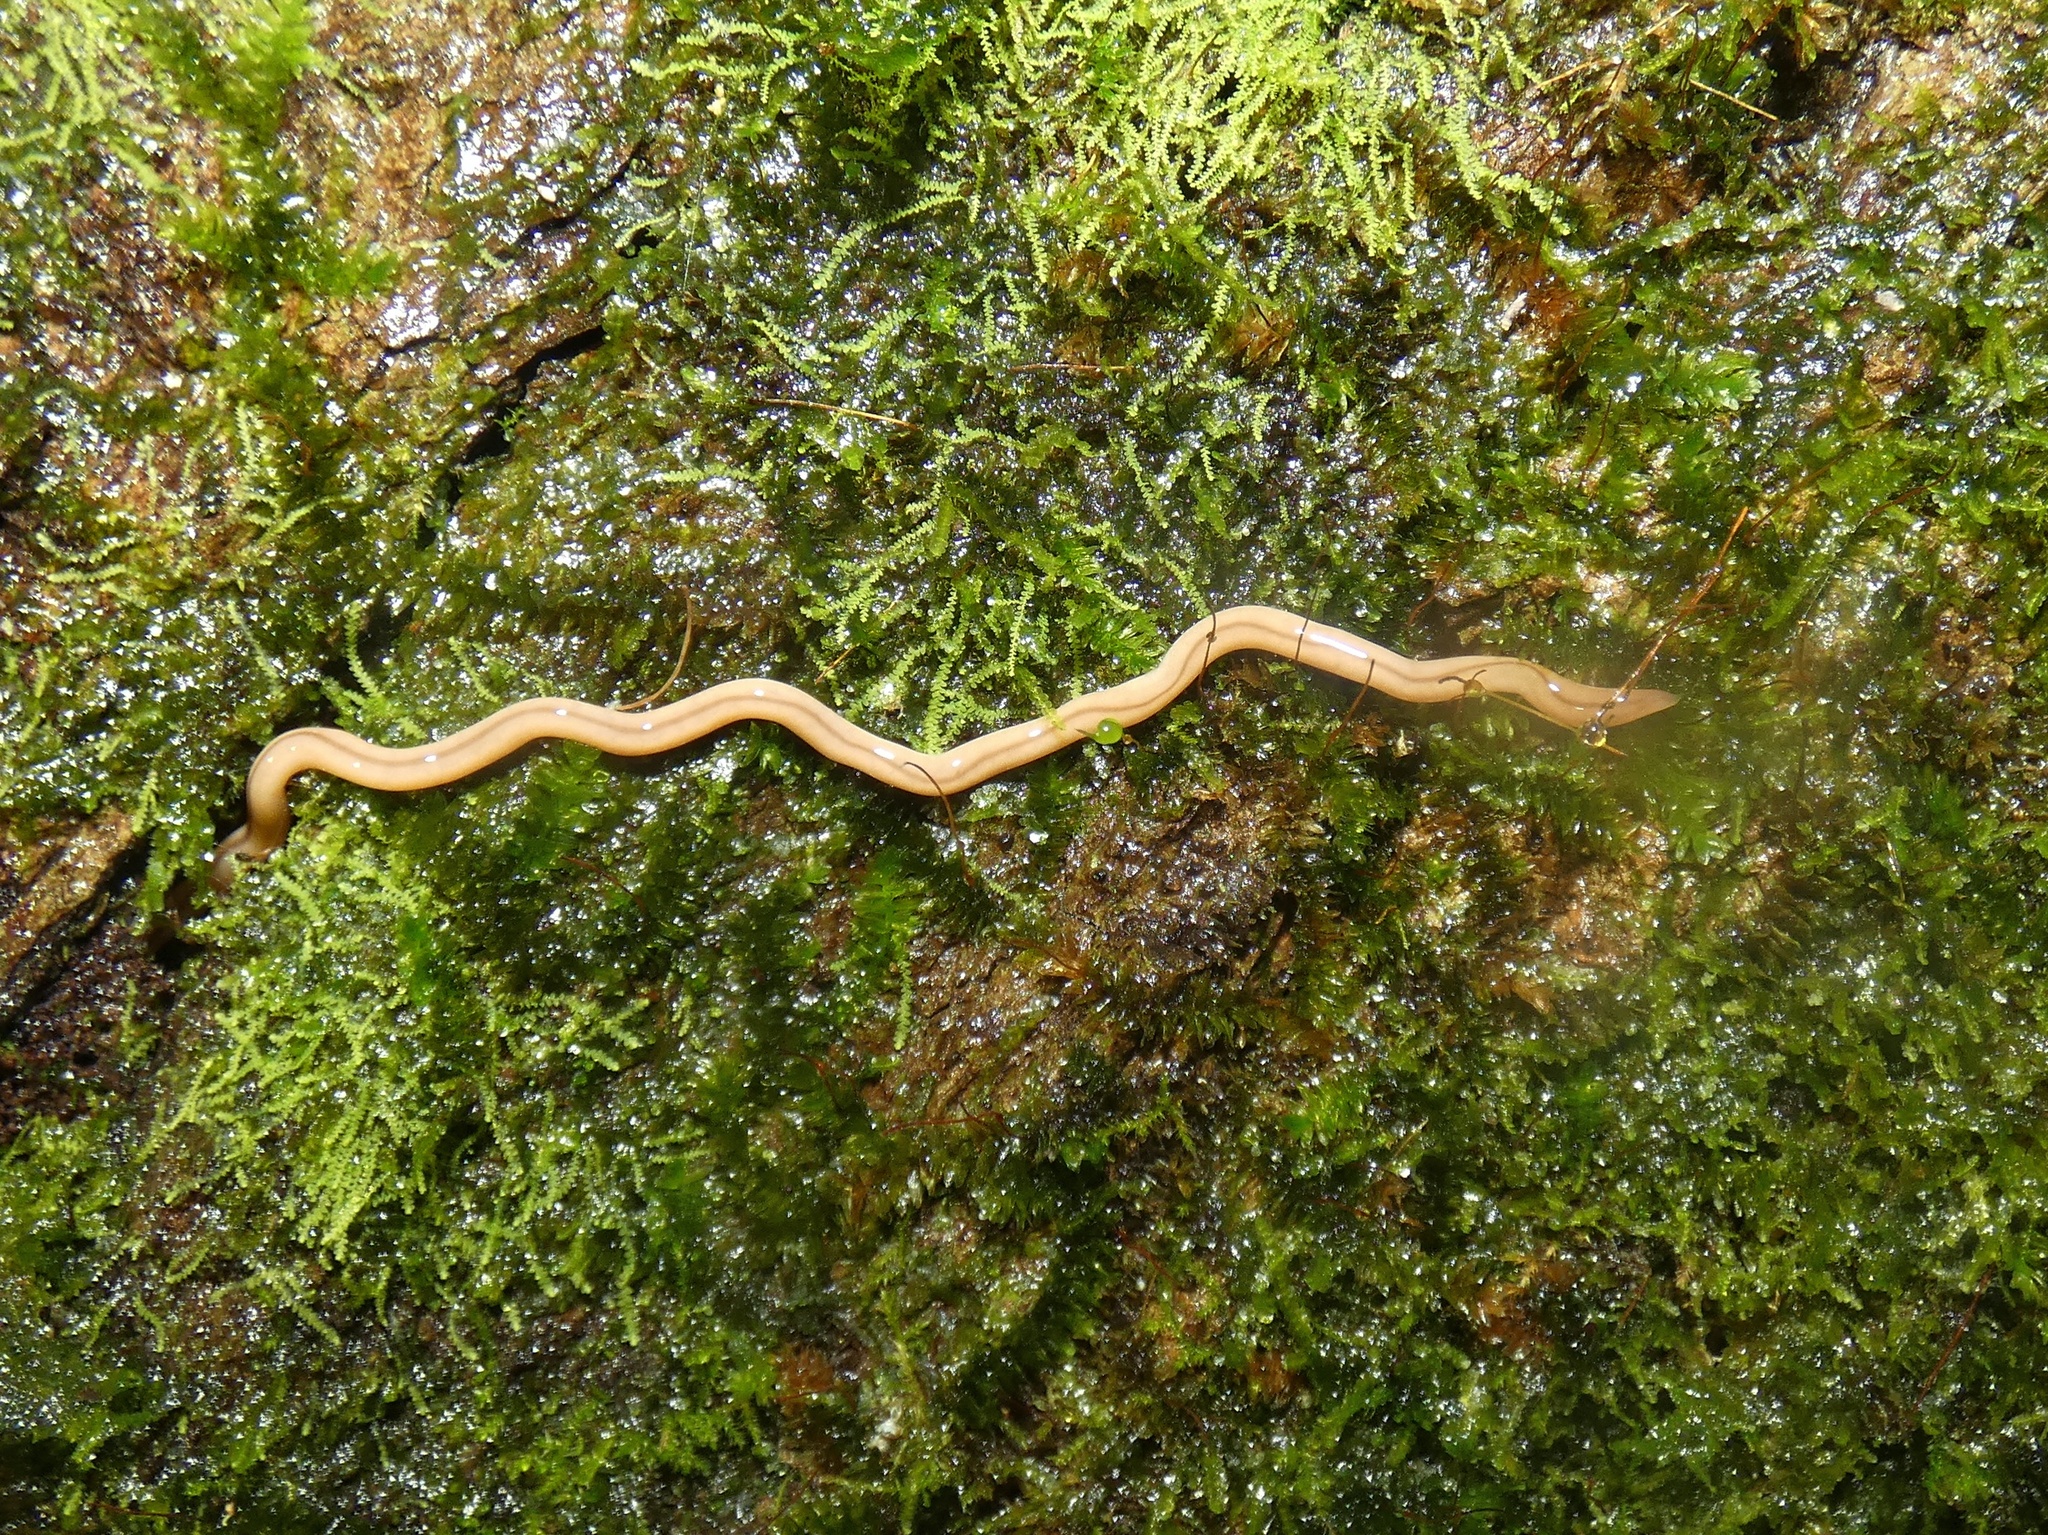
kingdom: Animalia
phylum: Nemertea
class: Hoplonemertea
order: Monostilifera
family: Prosorhochmidae
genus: Geonemertes
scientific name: Geonemertes pelaensis
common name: Land nemertean
